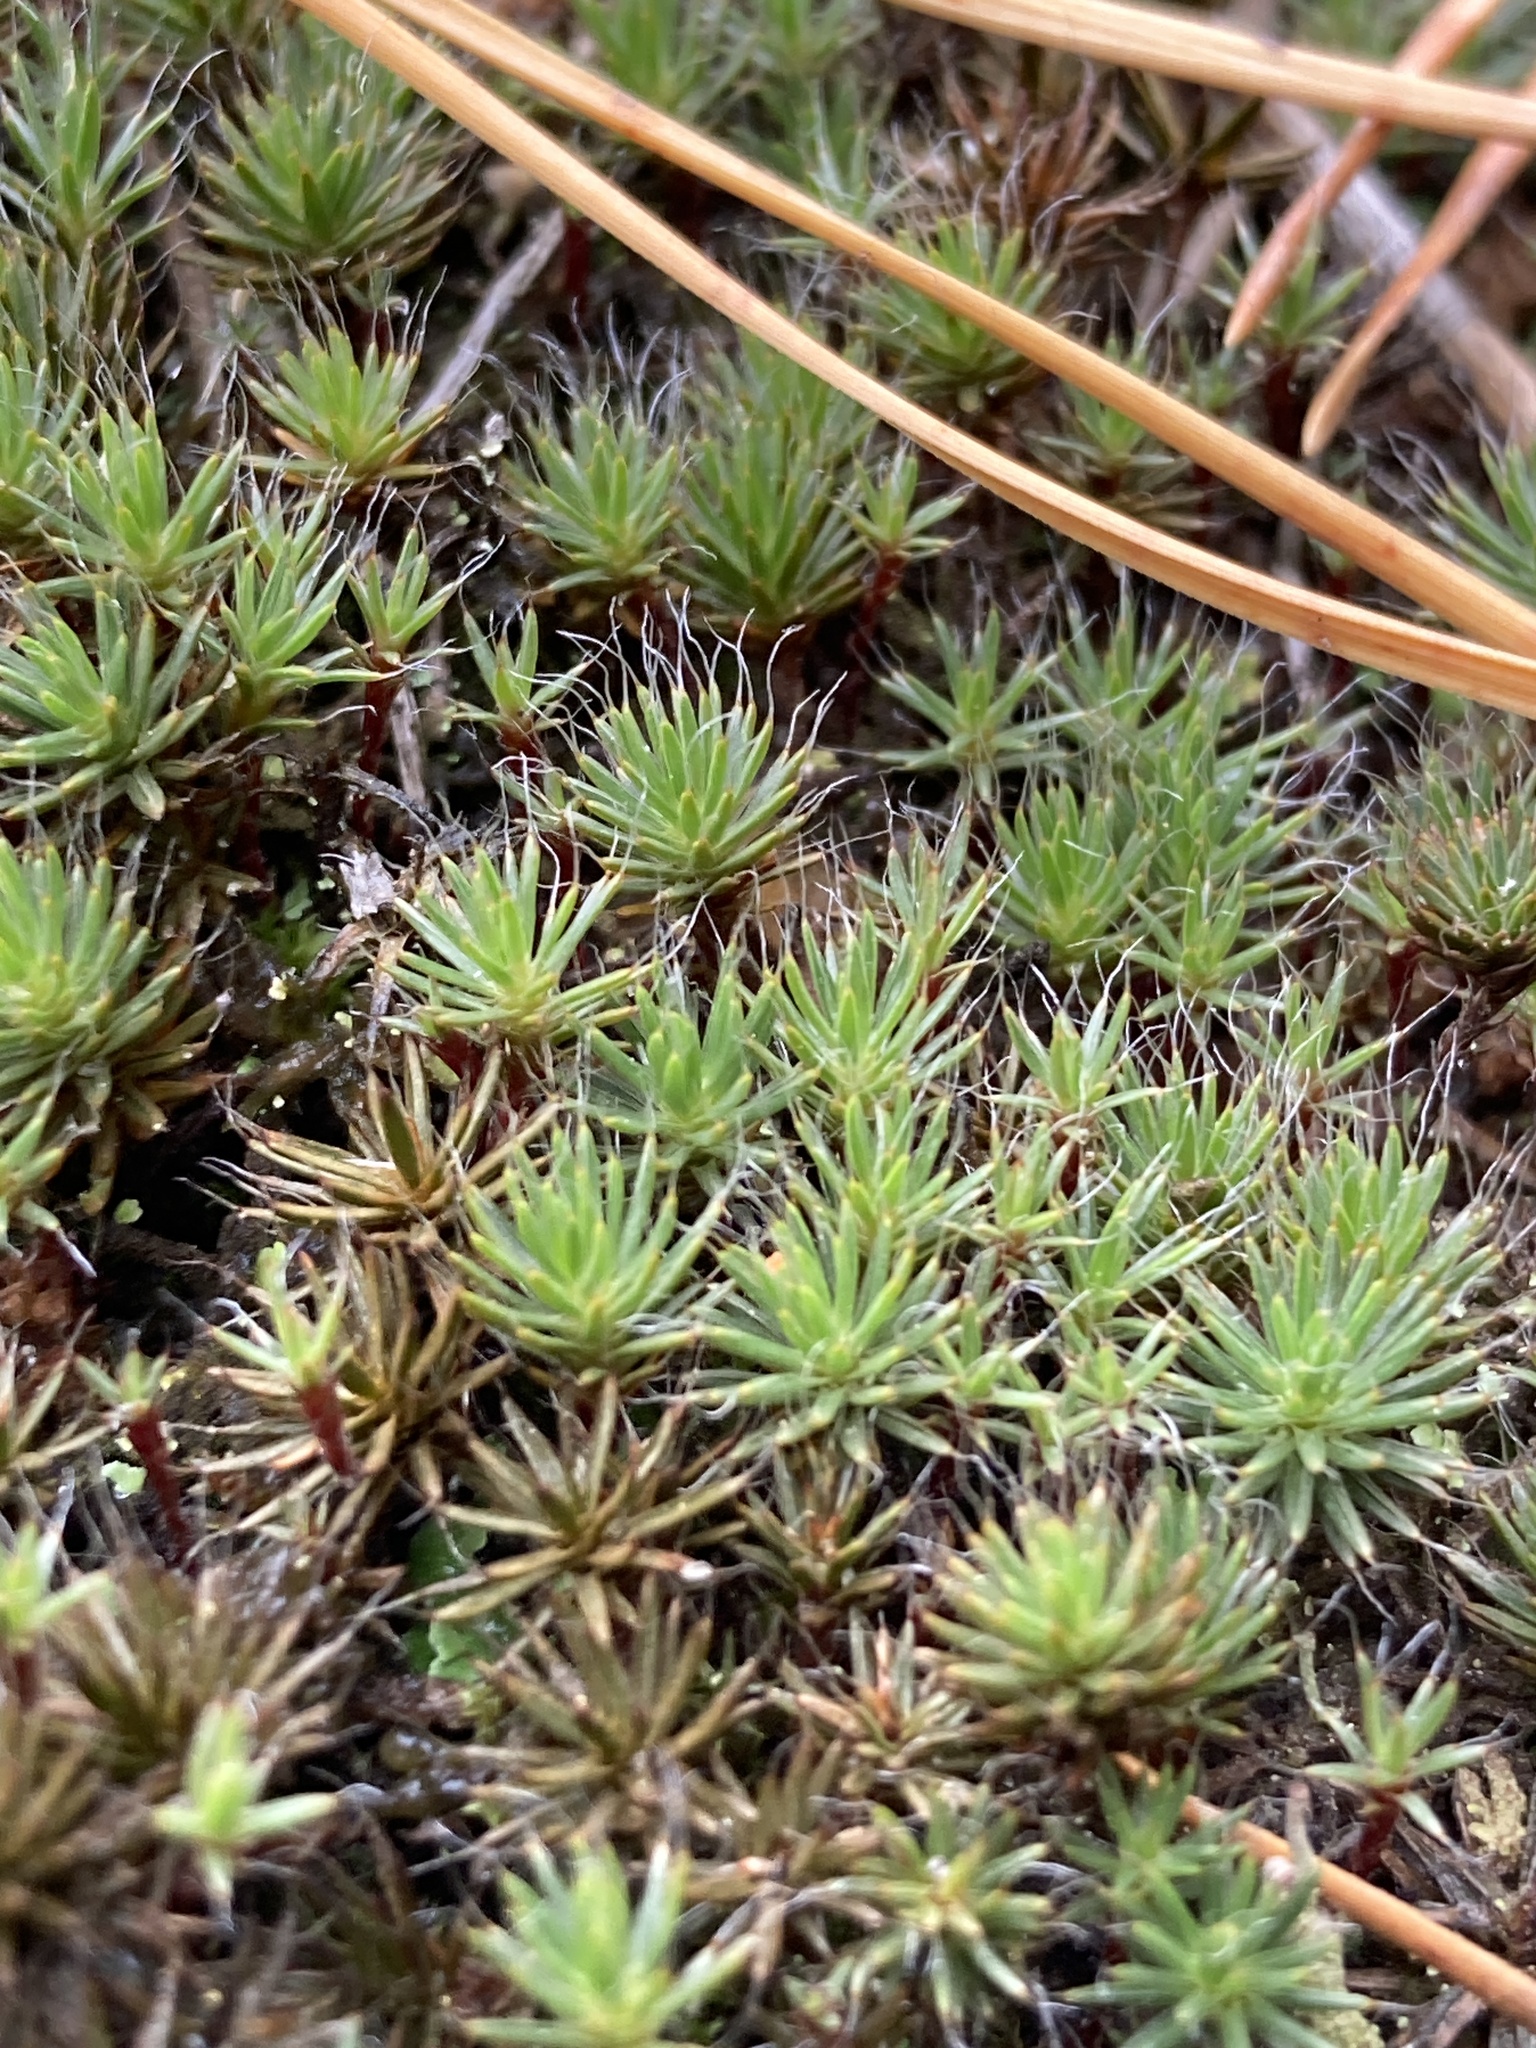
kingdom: Plantae
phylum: Bryophyta
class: Polytrichopsida
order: Polytrichales
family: Polytrichaceae
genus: Polytrichum
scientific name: Polytrichum piliferum
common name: Bristly haircap
